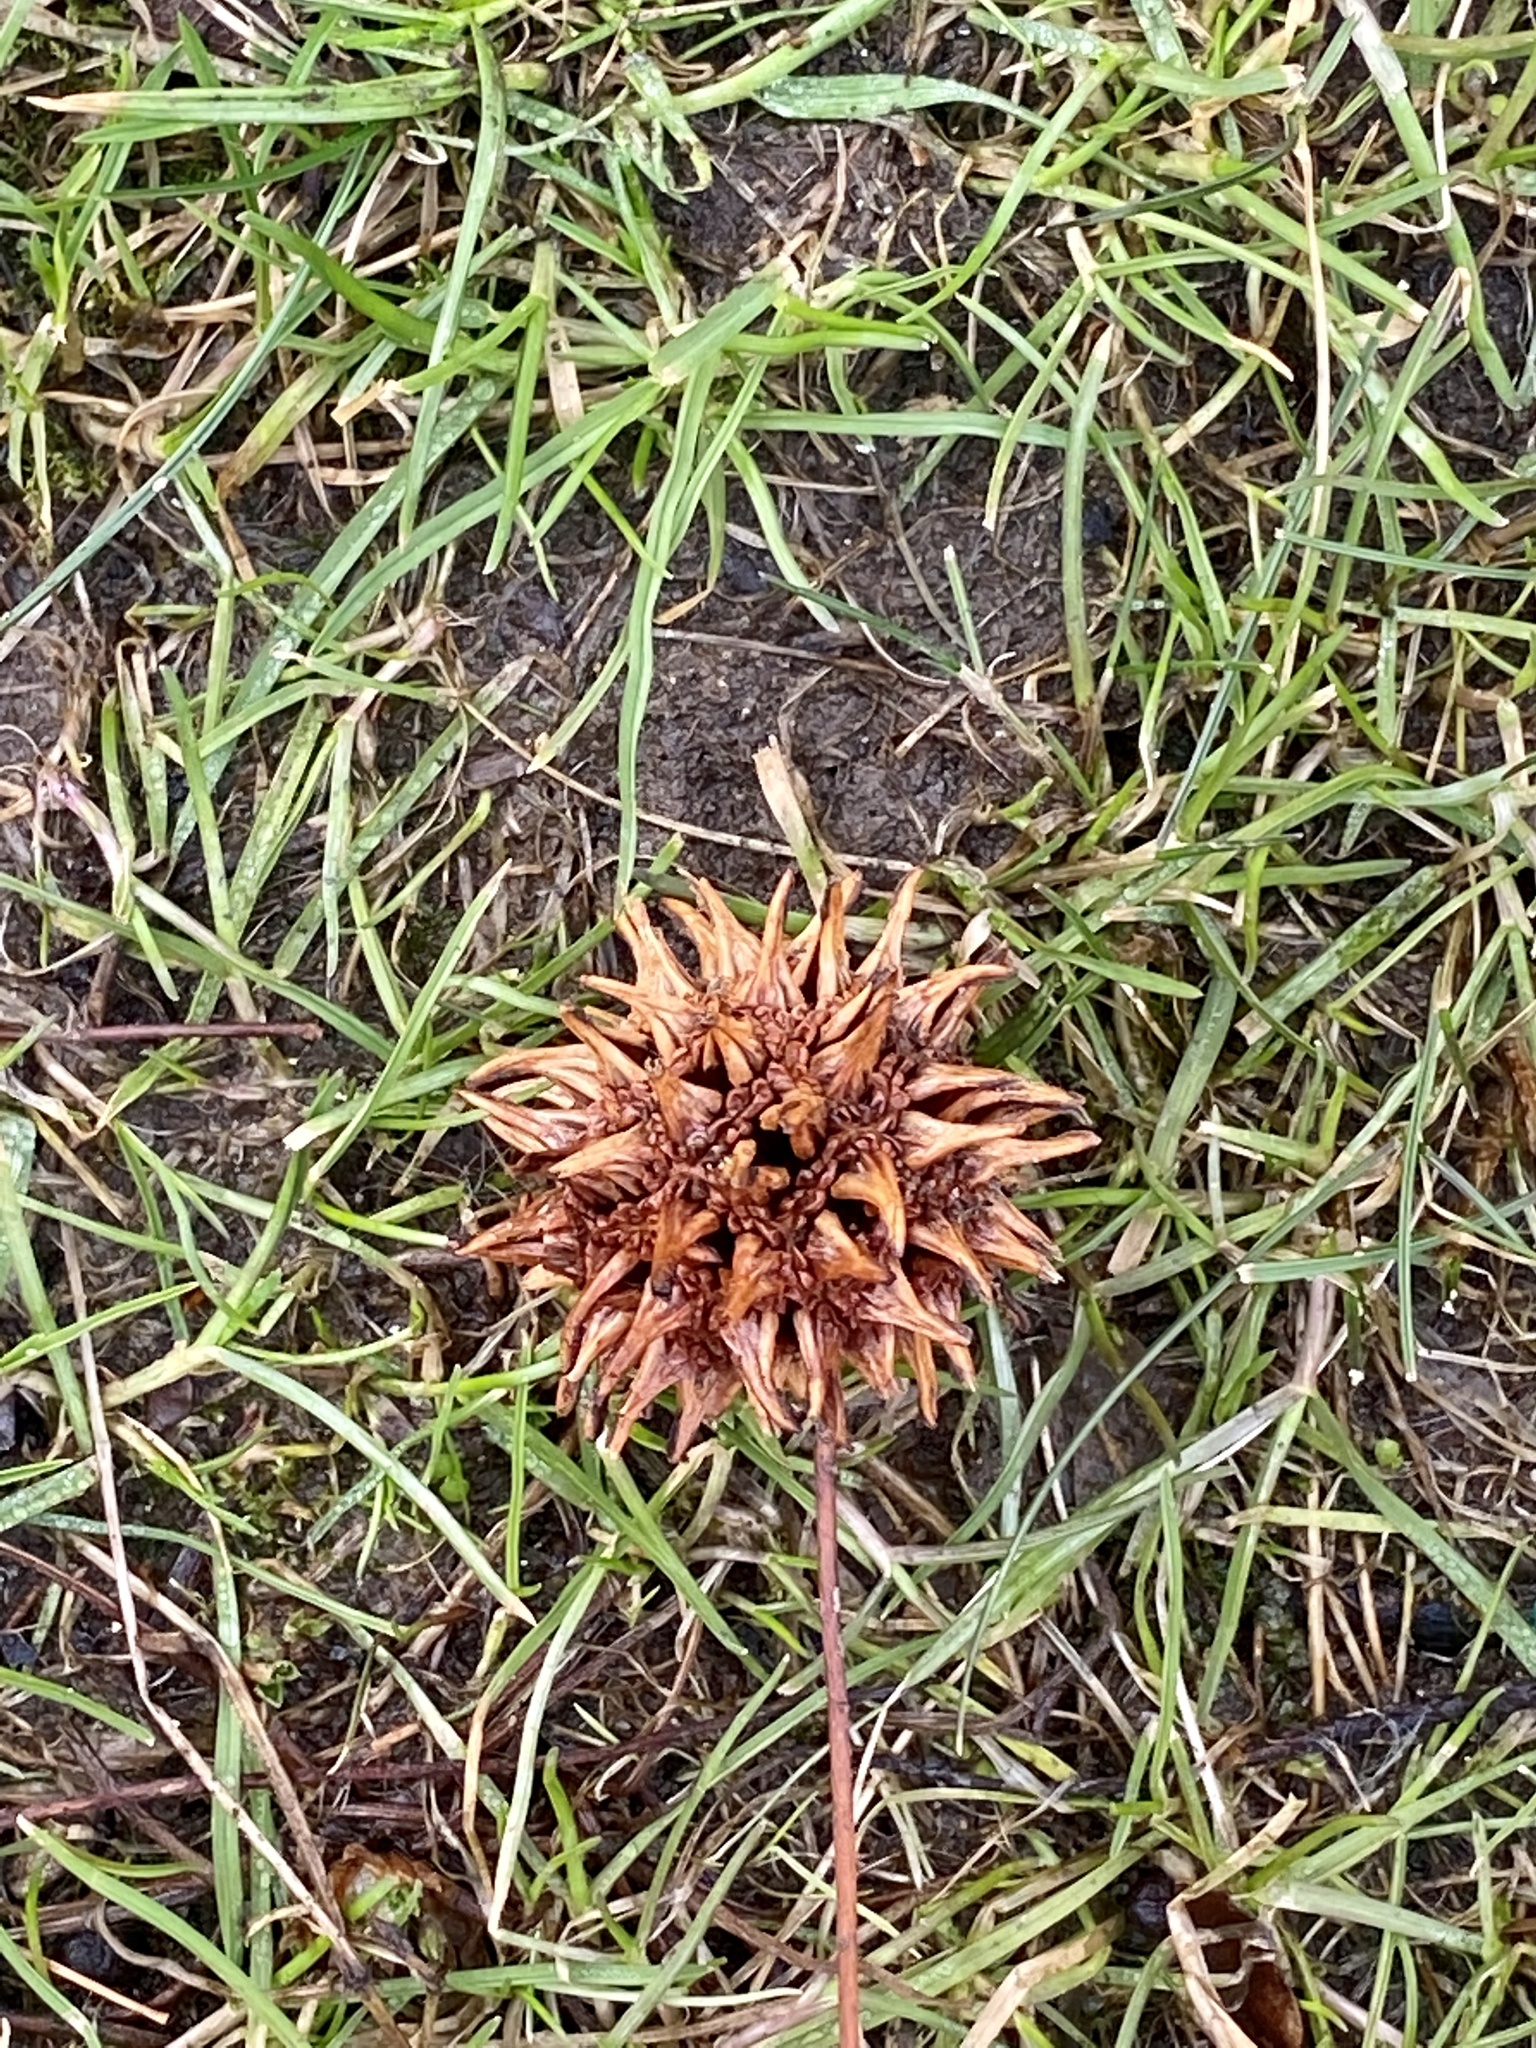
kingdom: Plantae
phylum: Tracheophyta
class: Magnoliopsida
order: Saxifragales
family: Altingiaceae
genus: Liquidambar
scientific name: Liquidambar styraciflua
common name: Sweet gum
